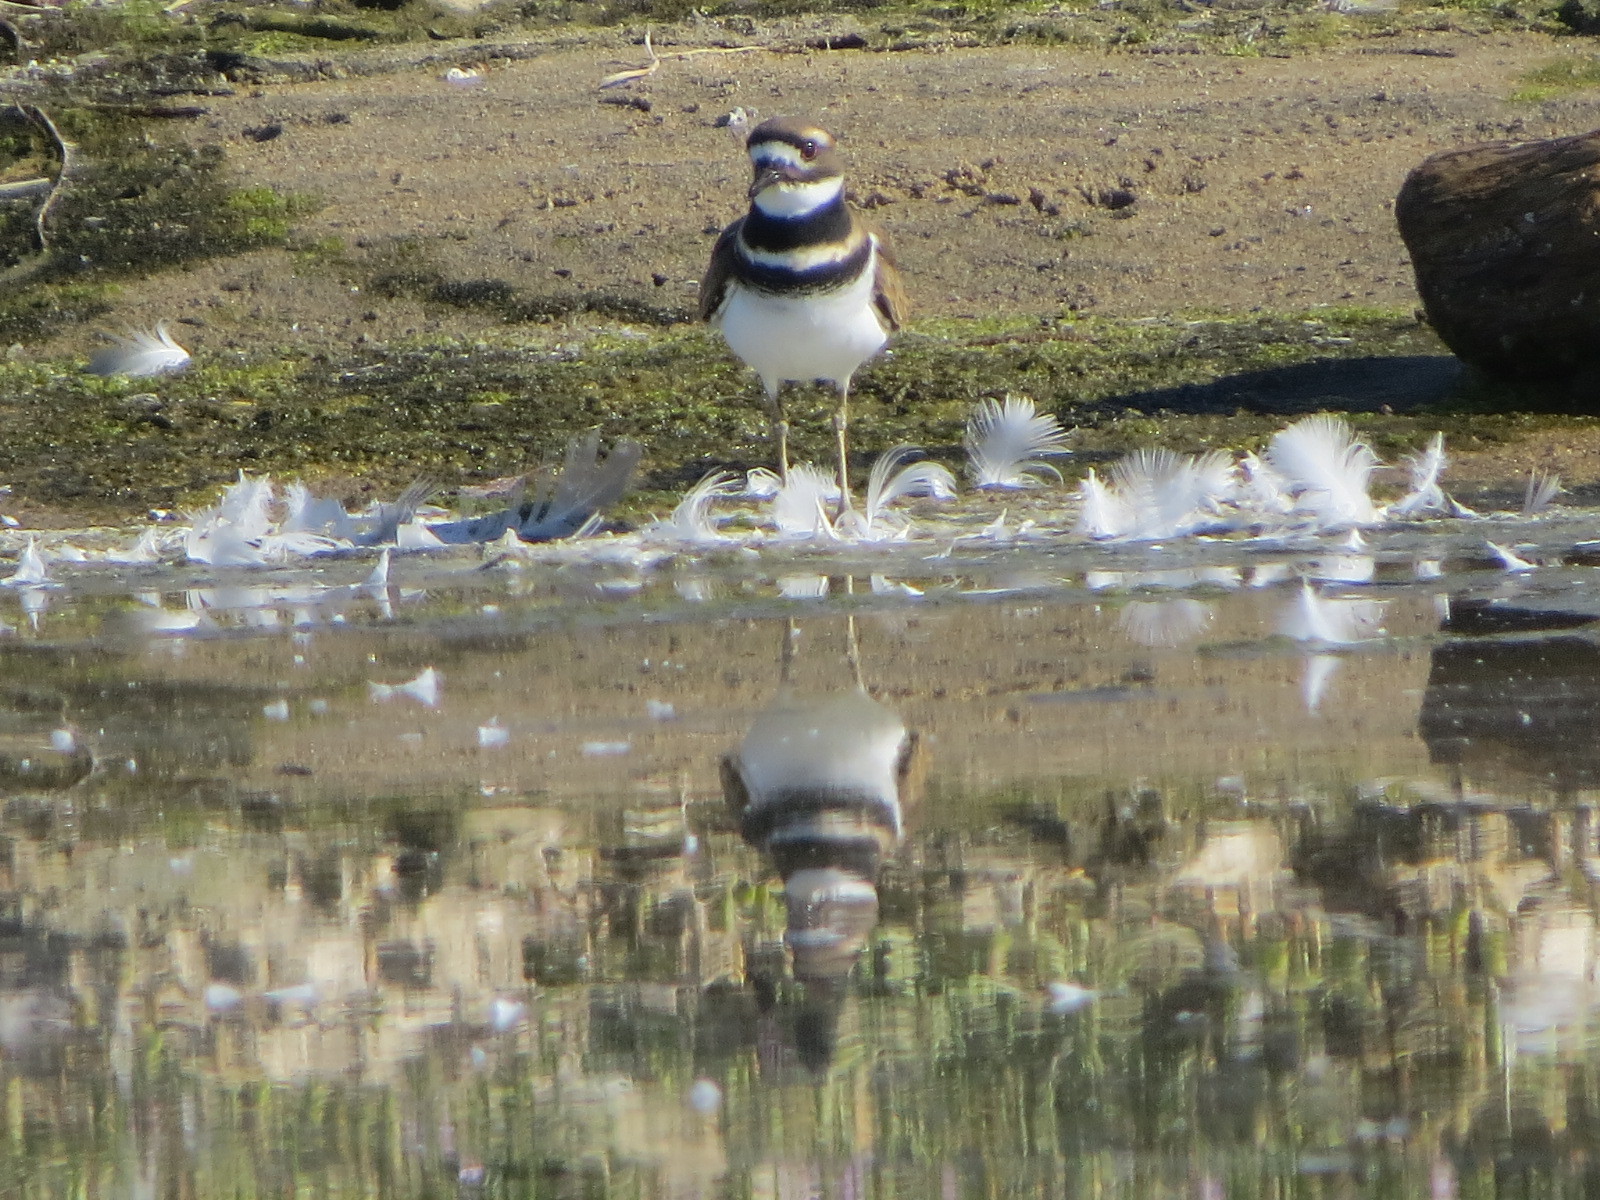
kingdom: Animalia
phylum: Chordata
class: Aves
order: Charadriiformes
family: Charadriidae
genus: Charadrius
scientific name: Charadrius vociferus
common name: Killdeer
